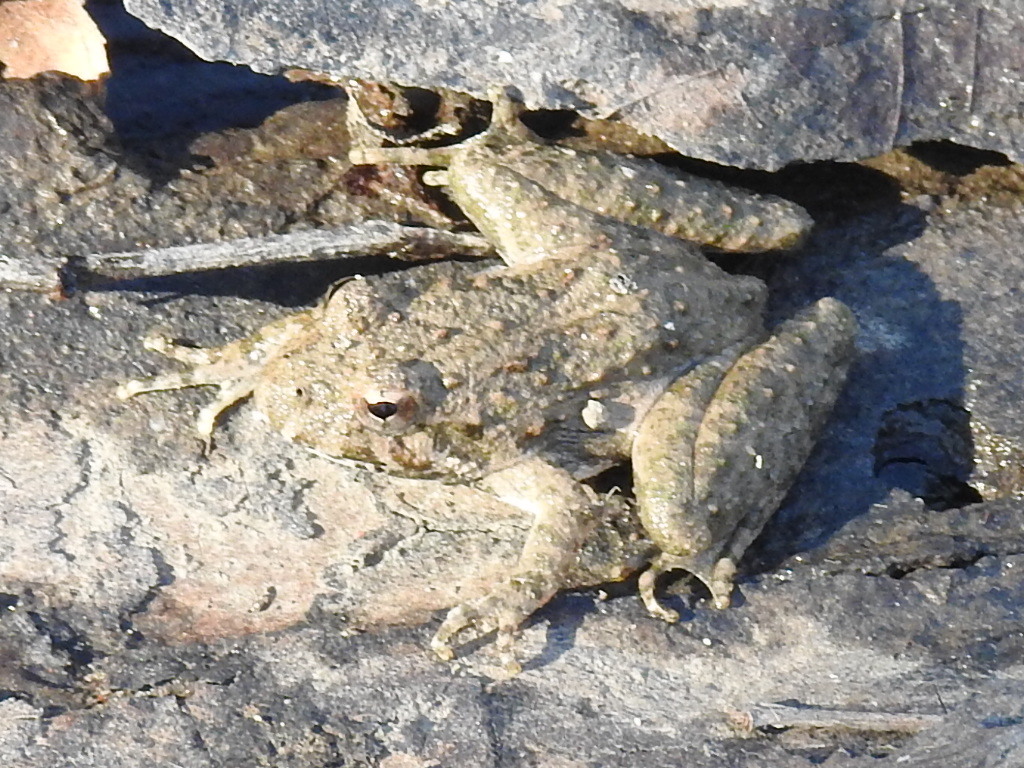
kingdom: Animalia
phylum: Chordata
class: Amphibia
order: Anura
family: Hylidae
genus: Acris
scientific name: Acris blanchardi
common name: Blanchard's cricket frog
